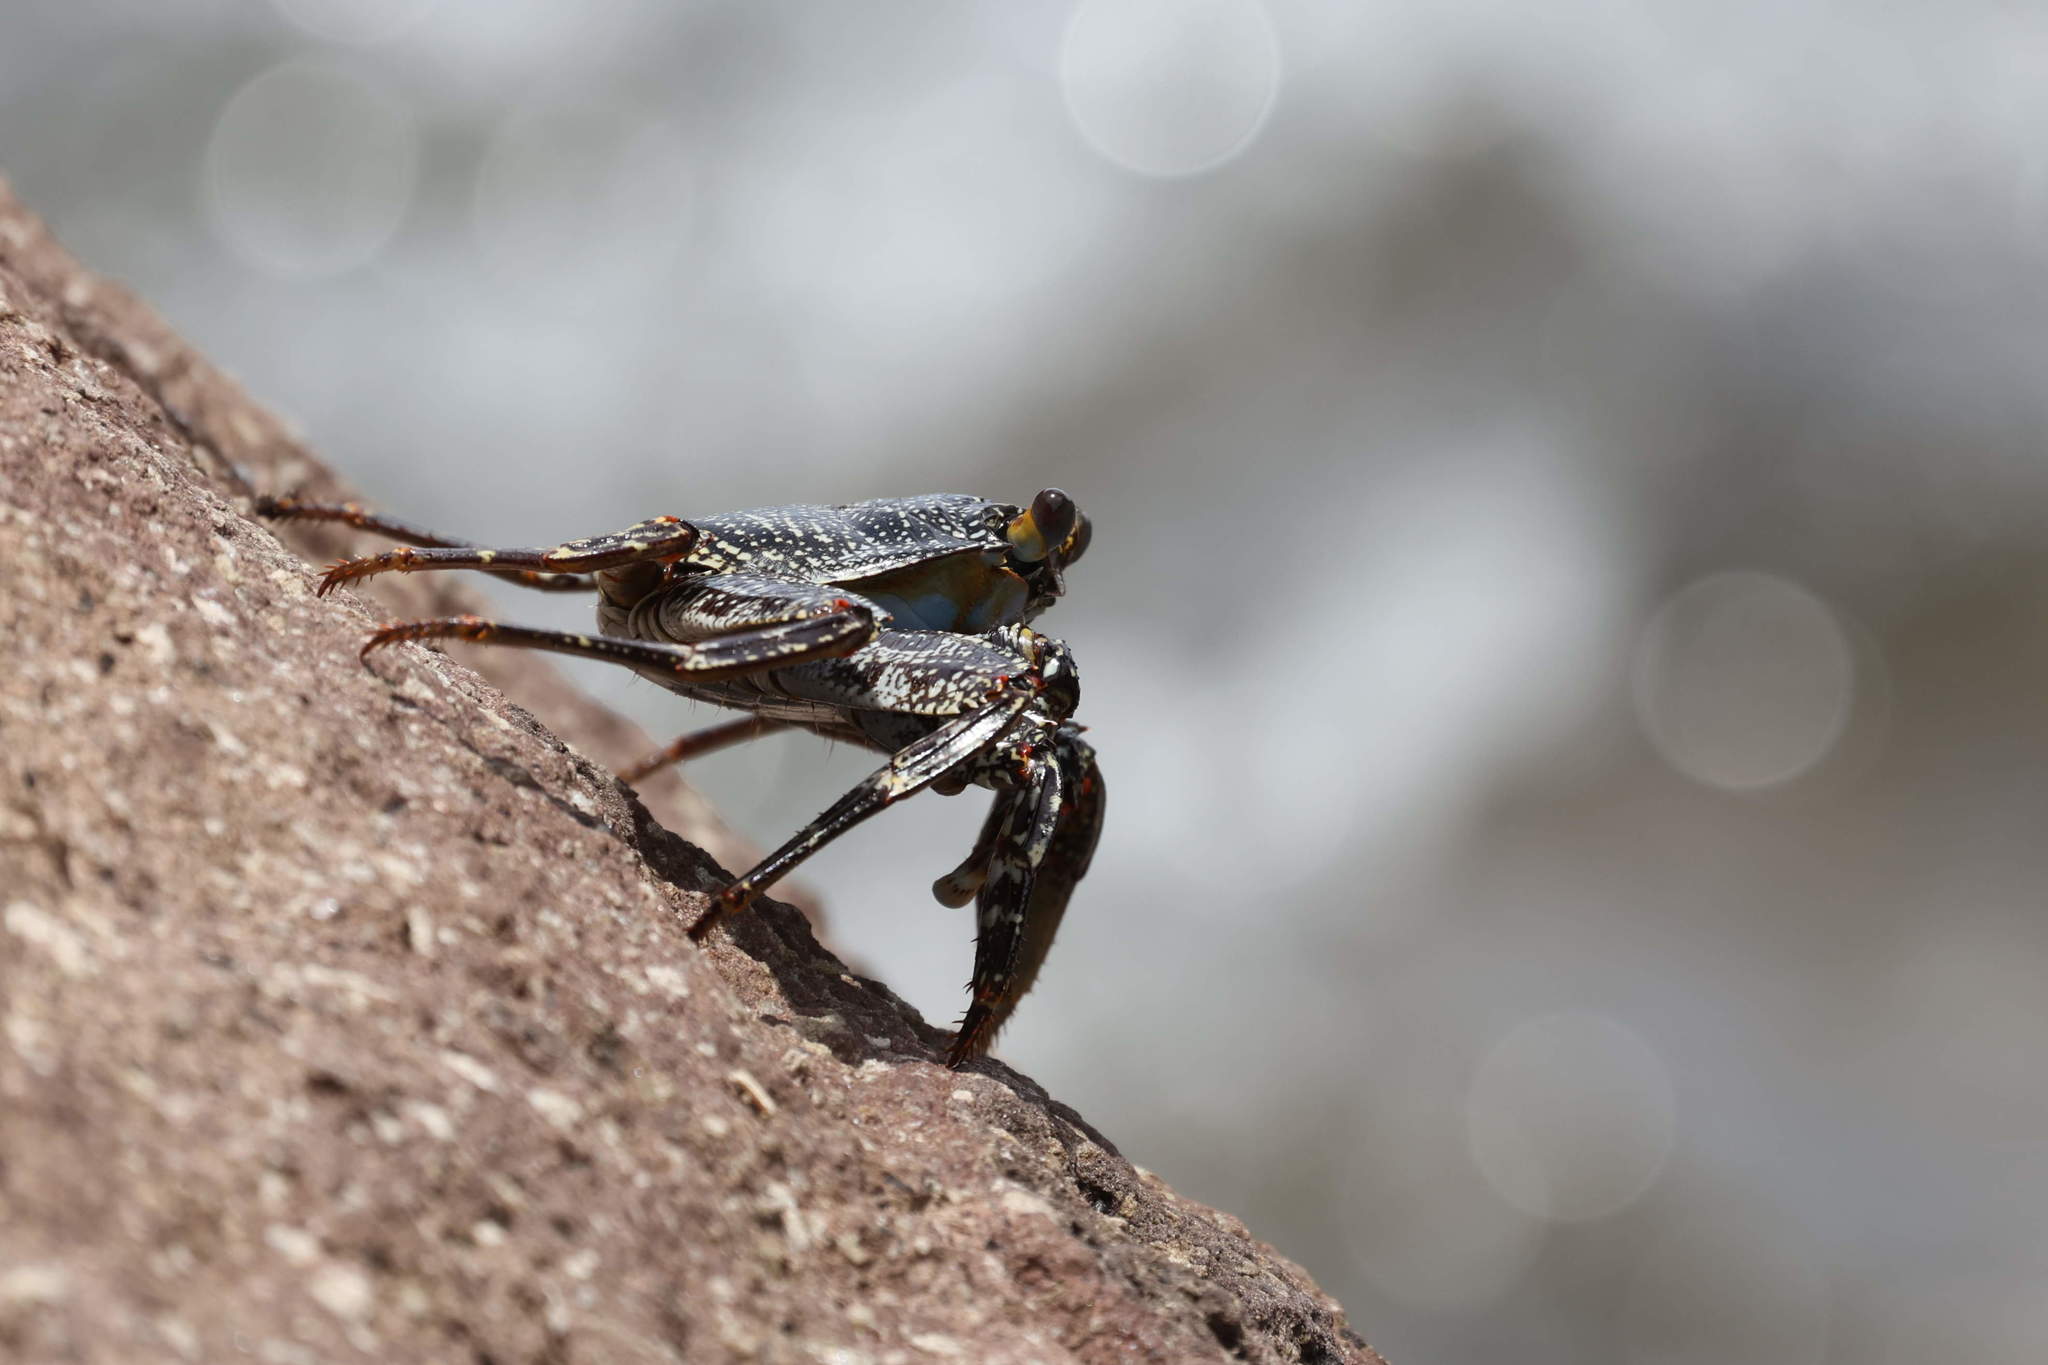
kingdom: Animalia
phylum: Arthropoda
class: Malacostraca
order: Decapoda
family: Grapsidae
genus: Grapsus
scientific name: Grapsus grapsus
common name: Sally lightfoot
